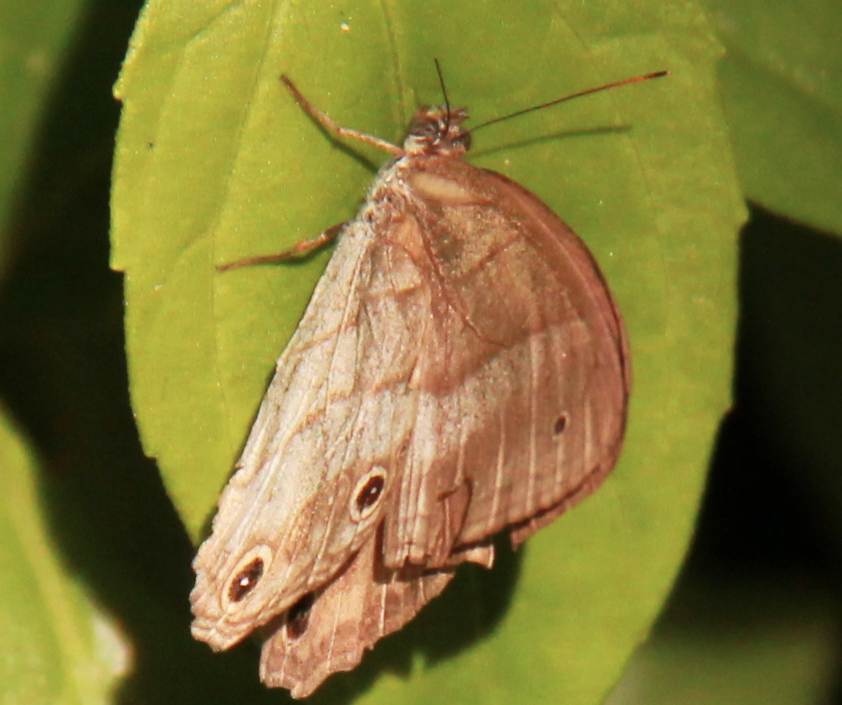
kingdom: Animalia
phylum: Arthropoda
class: Insecta
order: Lepidoptera
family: Nymphalidae
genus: Euptychoides
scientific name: Euptychoides saturnus
